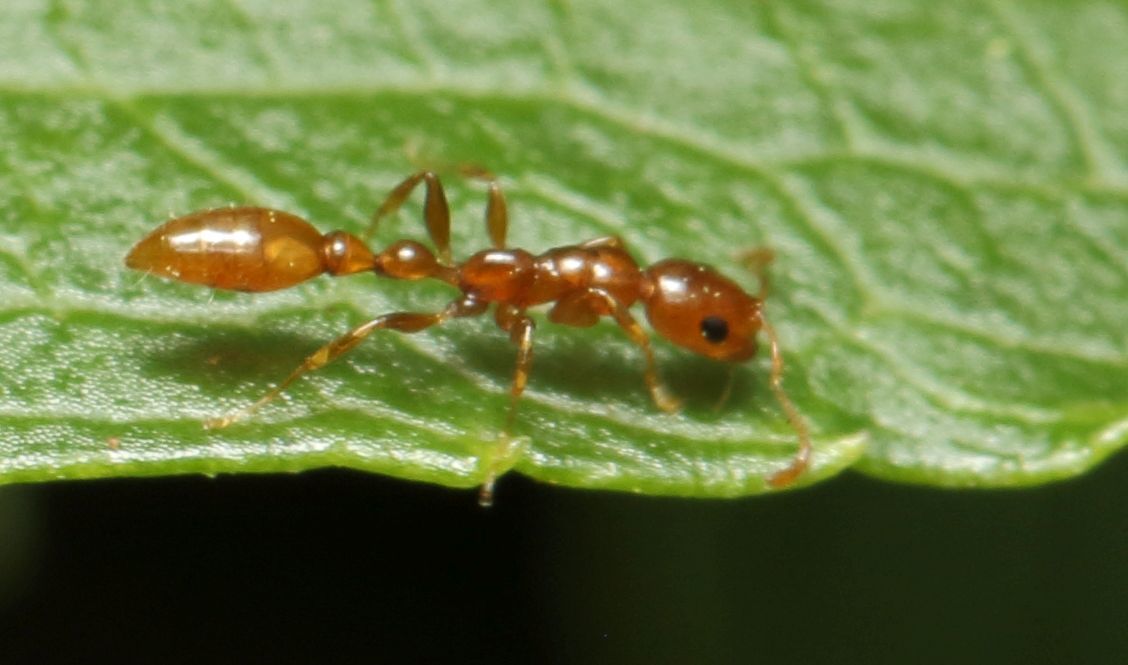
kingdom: Animalia
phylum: Arthropoda
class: Insecta
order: Hymenoptera
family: Formicidae
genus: Tetraponera
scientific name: Tetraponera emeryi
